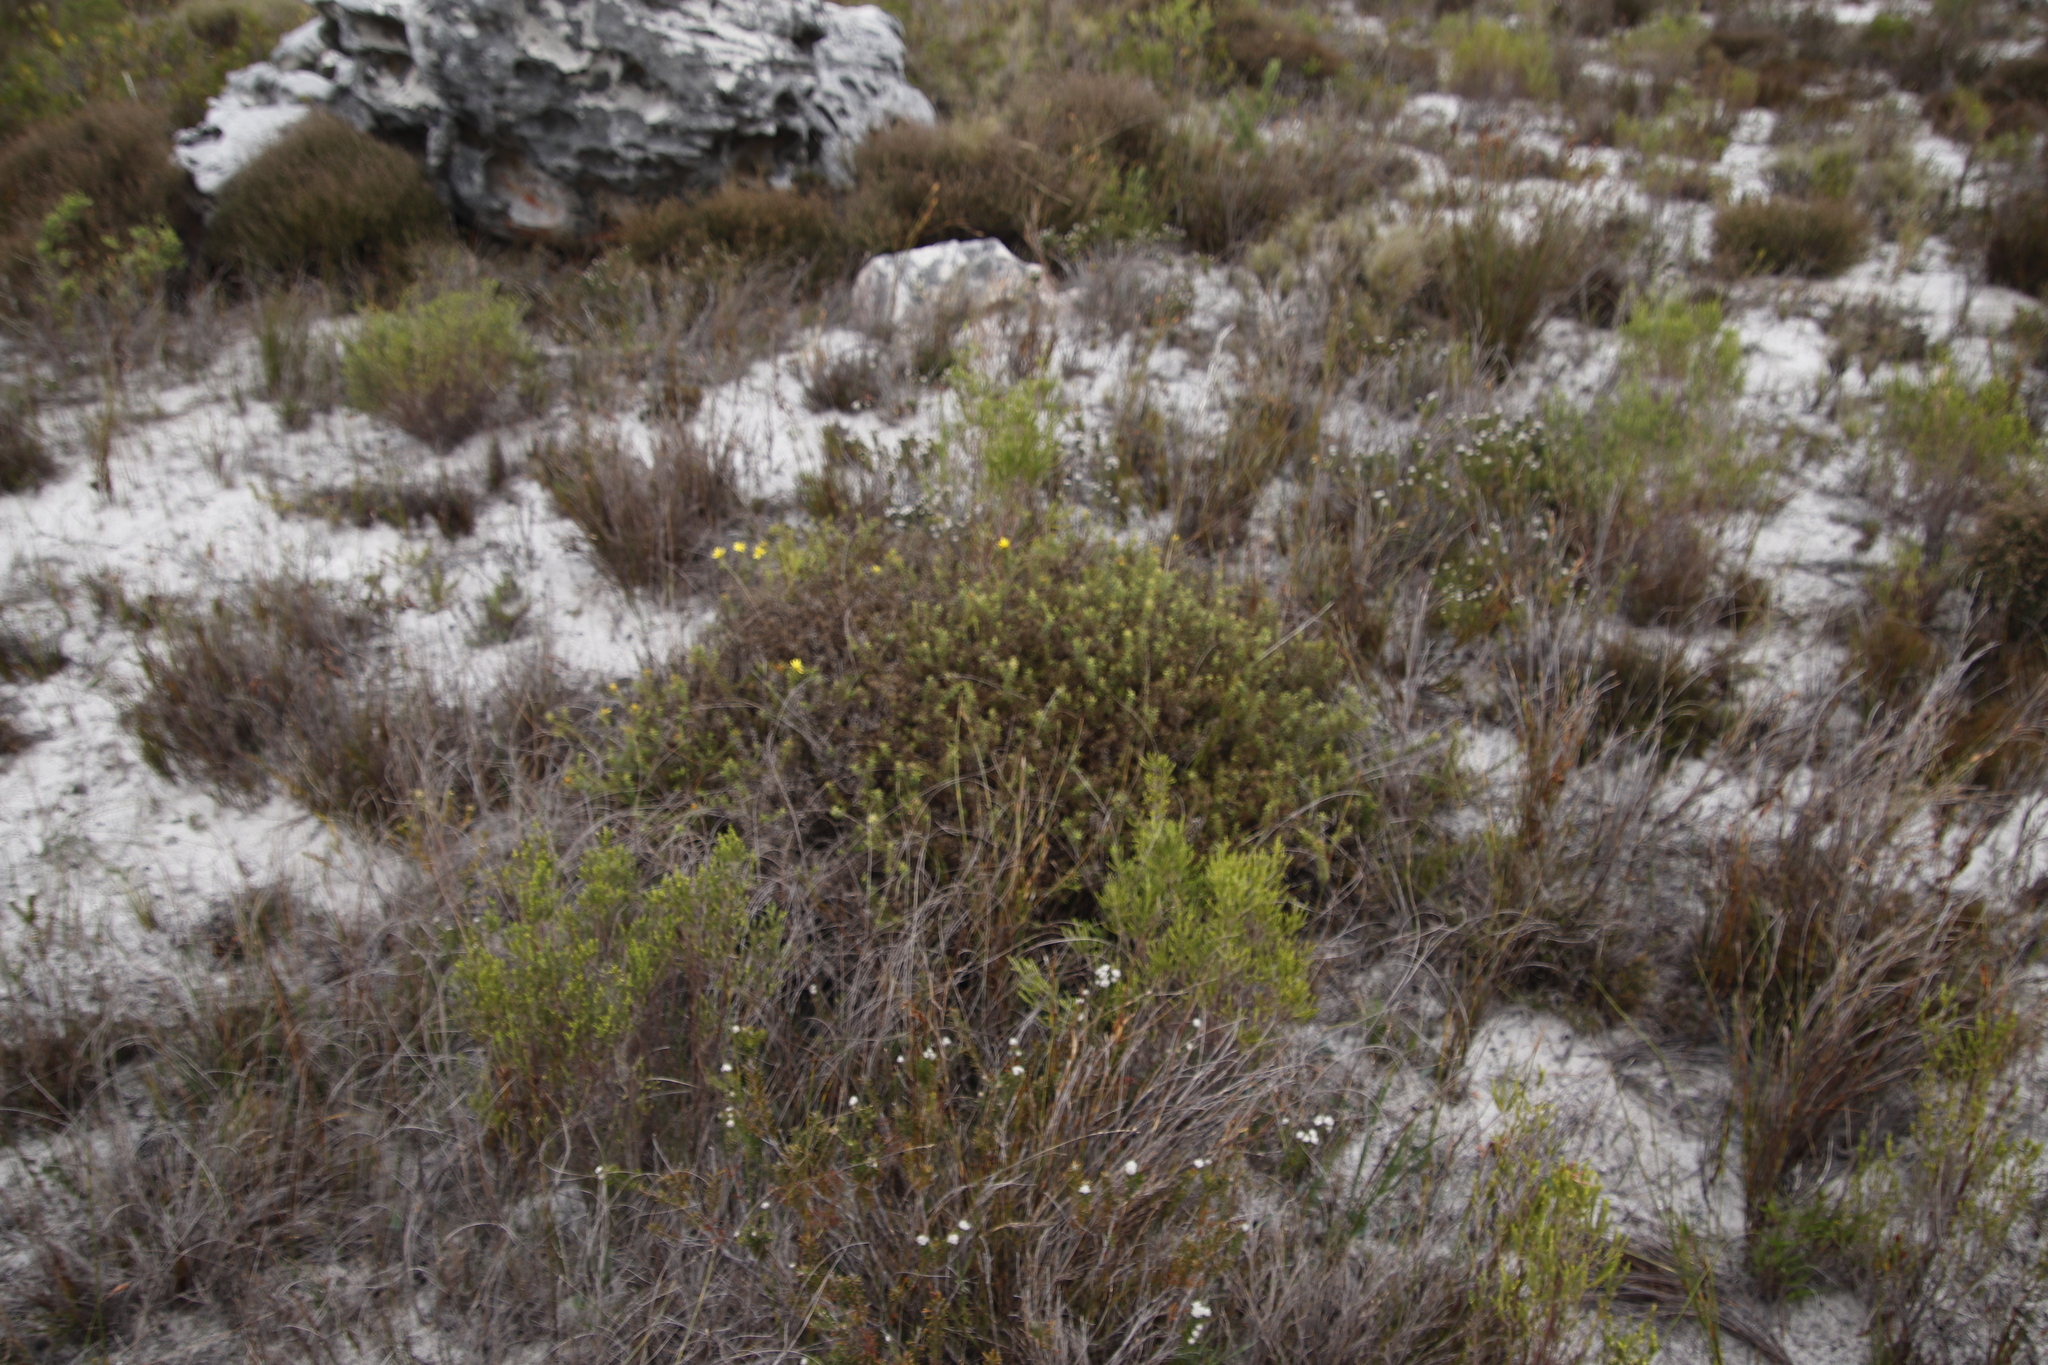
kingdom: Plantae
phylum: Tracheophyta
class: Magnoliopsida
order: Asterales
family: Asteraceae
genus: Cullumia
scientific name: Cullumia setosa
